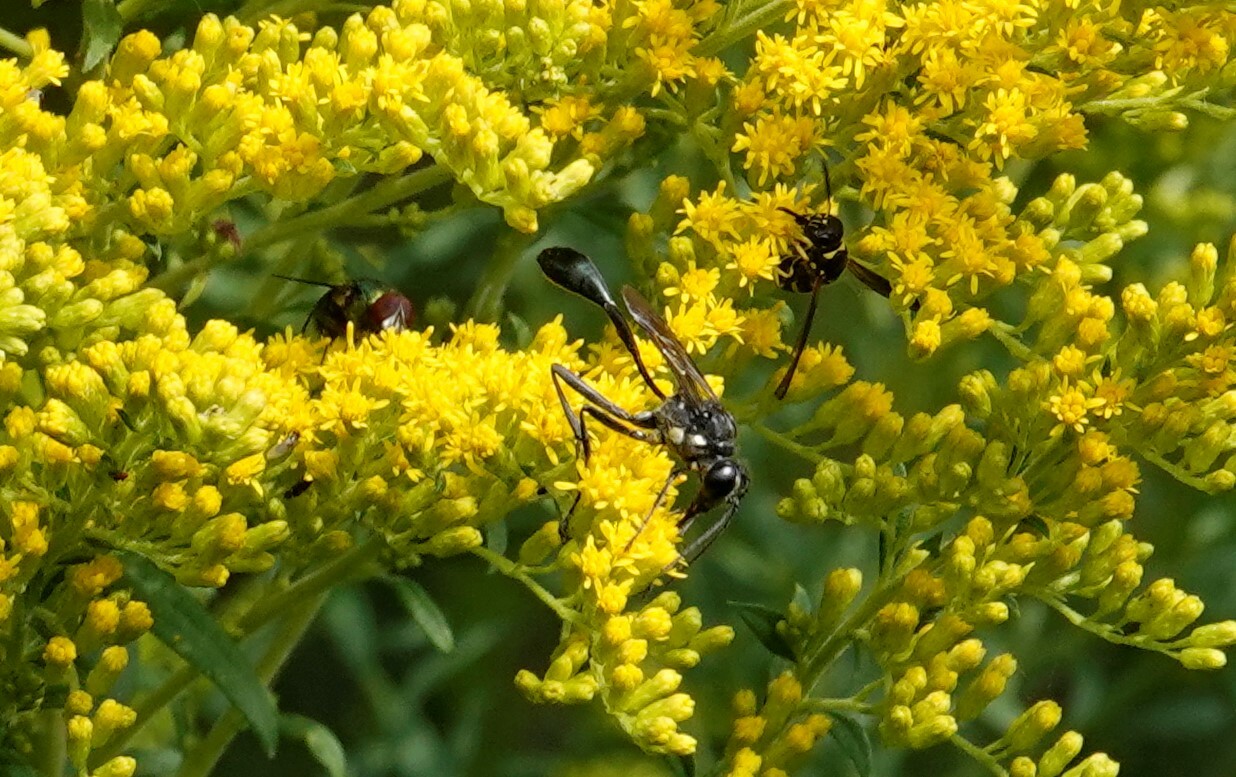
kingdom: Animalia
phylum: Arthropoda
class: Insecta
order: Hymenoptera
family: Sphecidae
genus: Eremnophila
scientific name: Eremnophila aureonotata
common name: Gold-marked thread-waisted wasp
